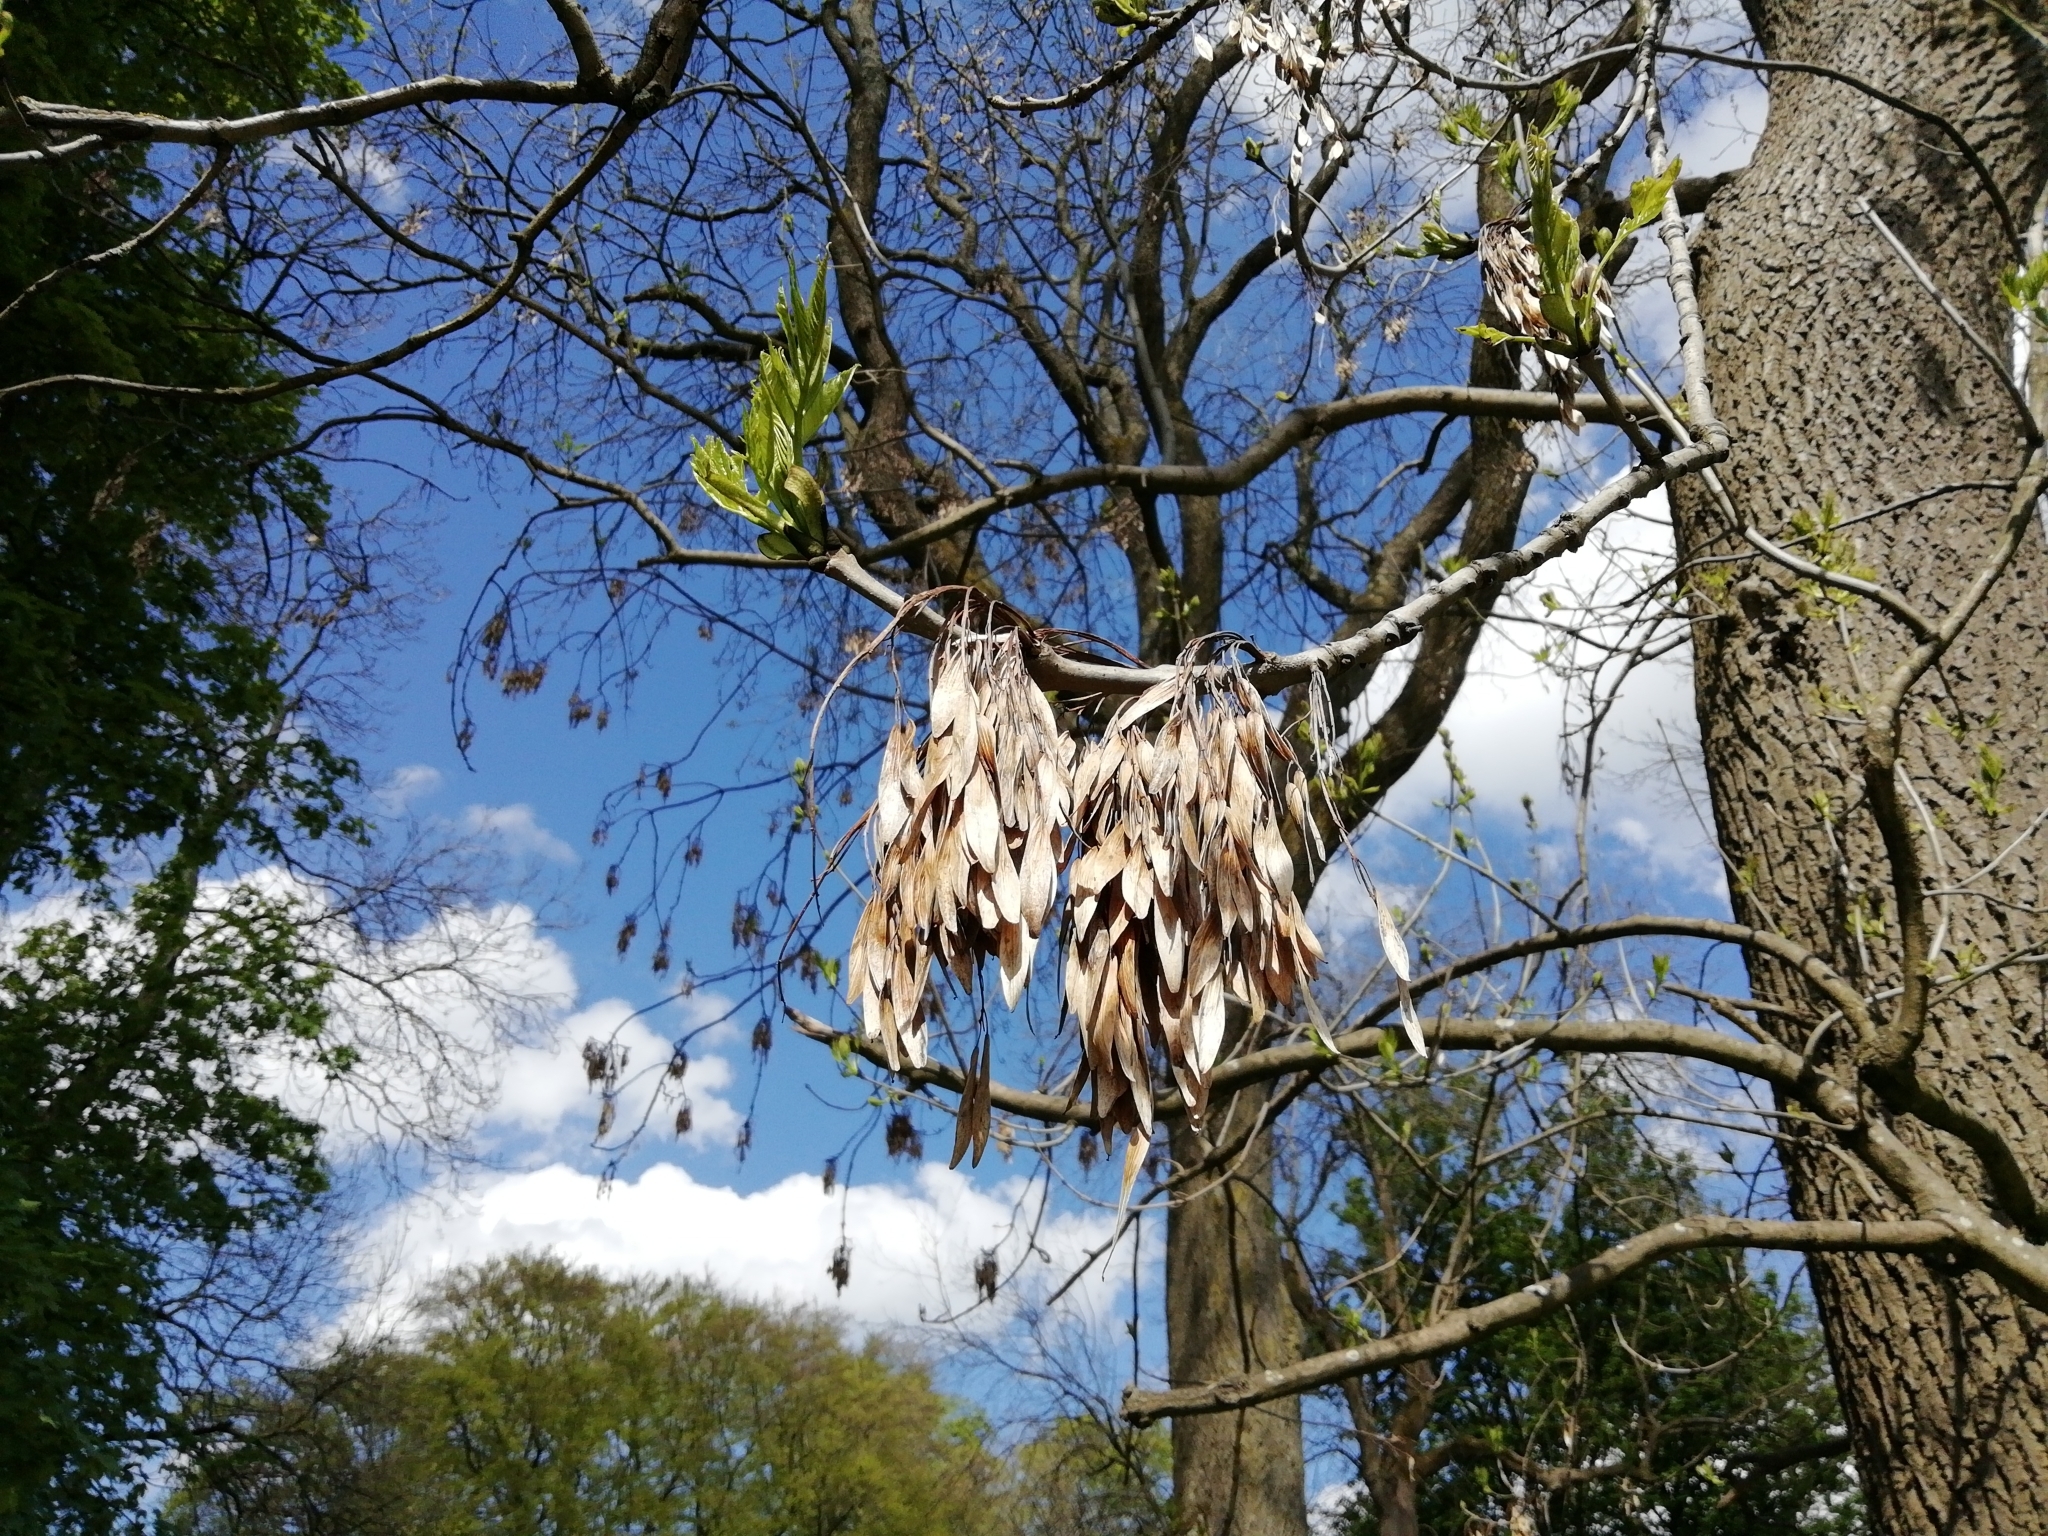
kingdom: Plantae
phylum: Tracheophyta
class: Magnoliopsida
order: Lamiales
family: Oleaceae
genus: Fraxinus
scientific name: Fraxinus excelsior
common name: European ash
